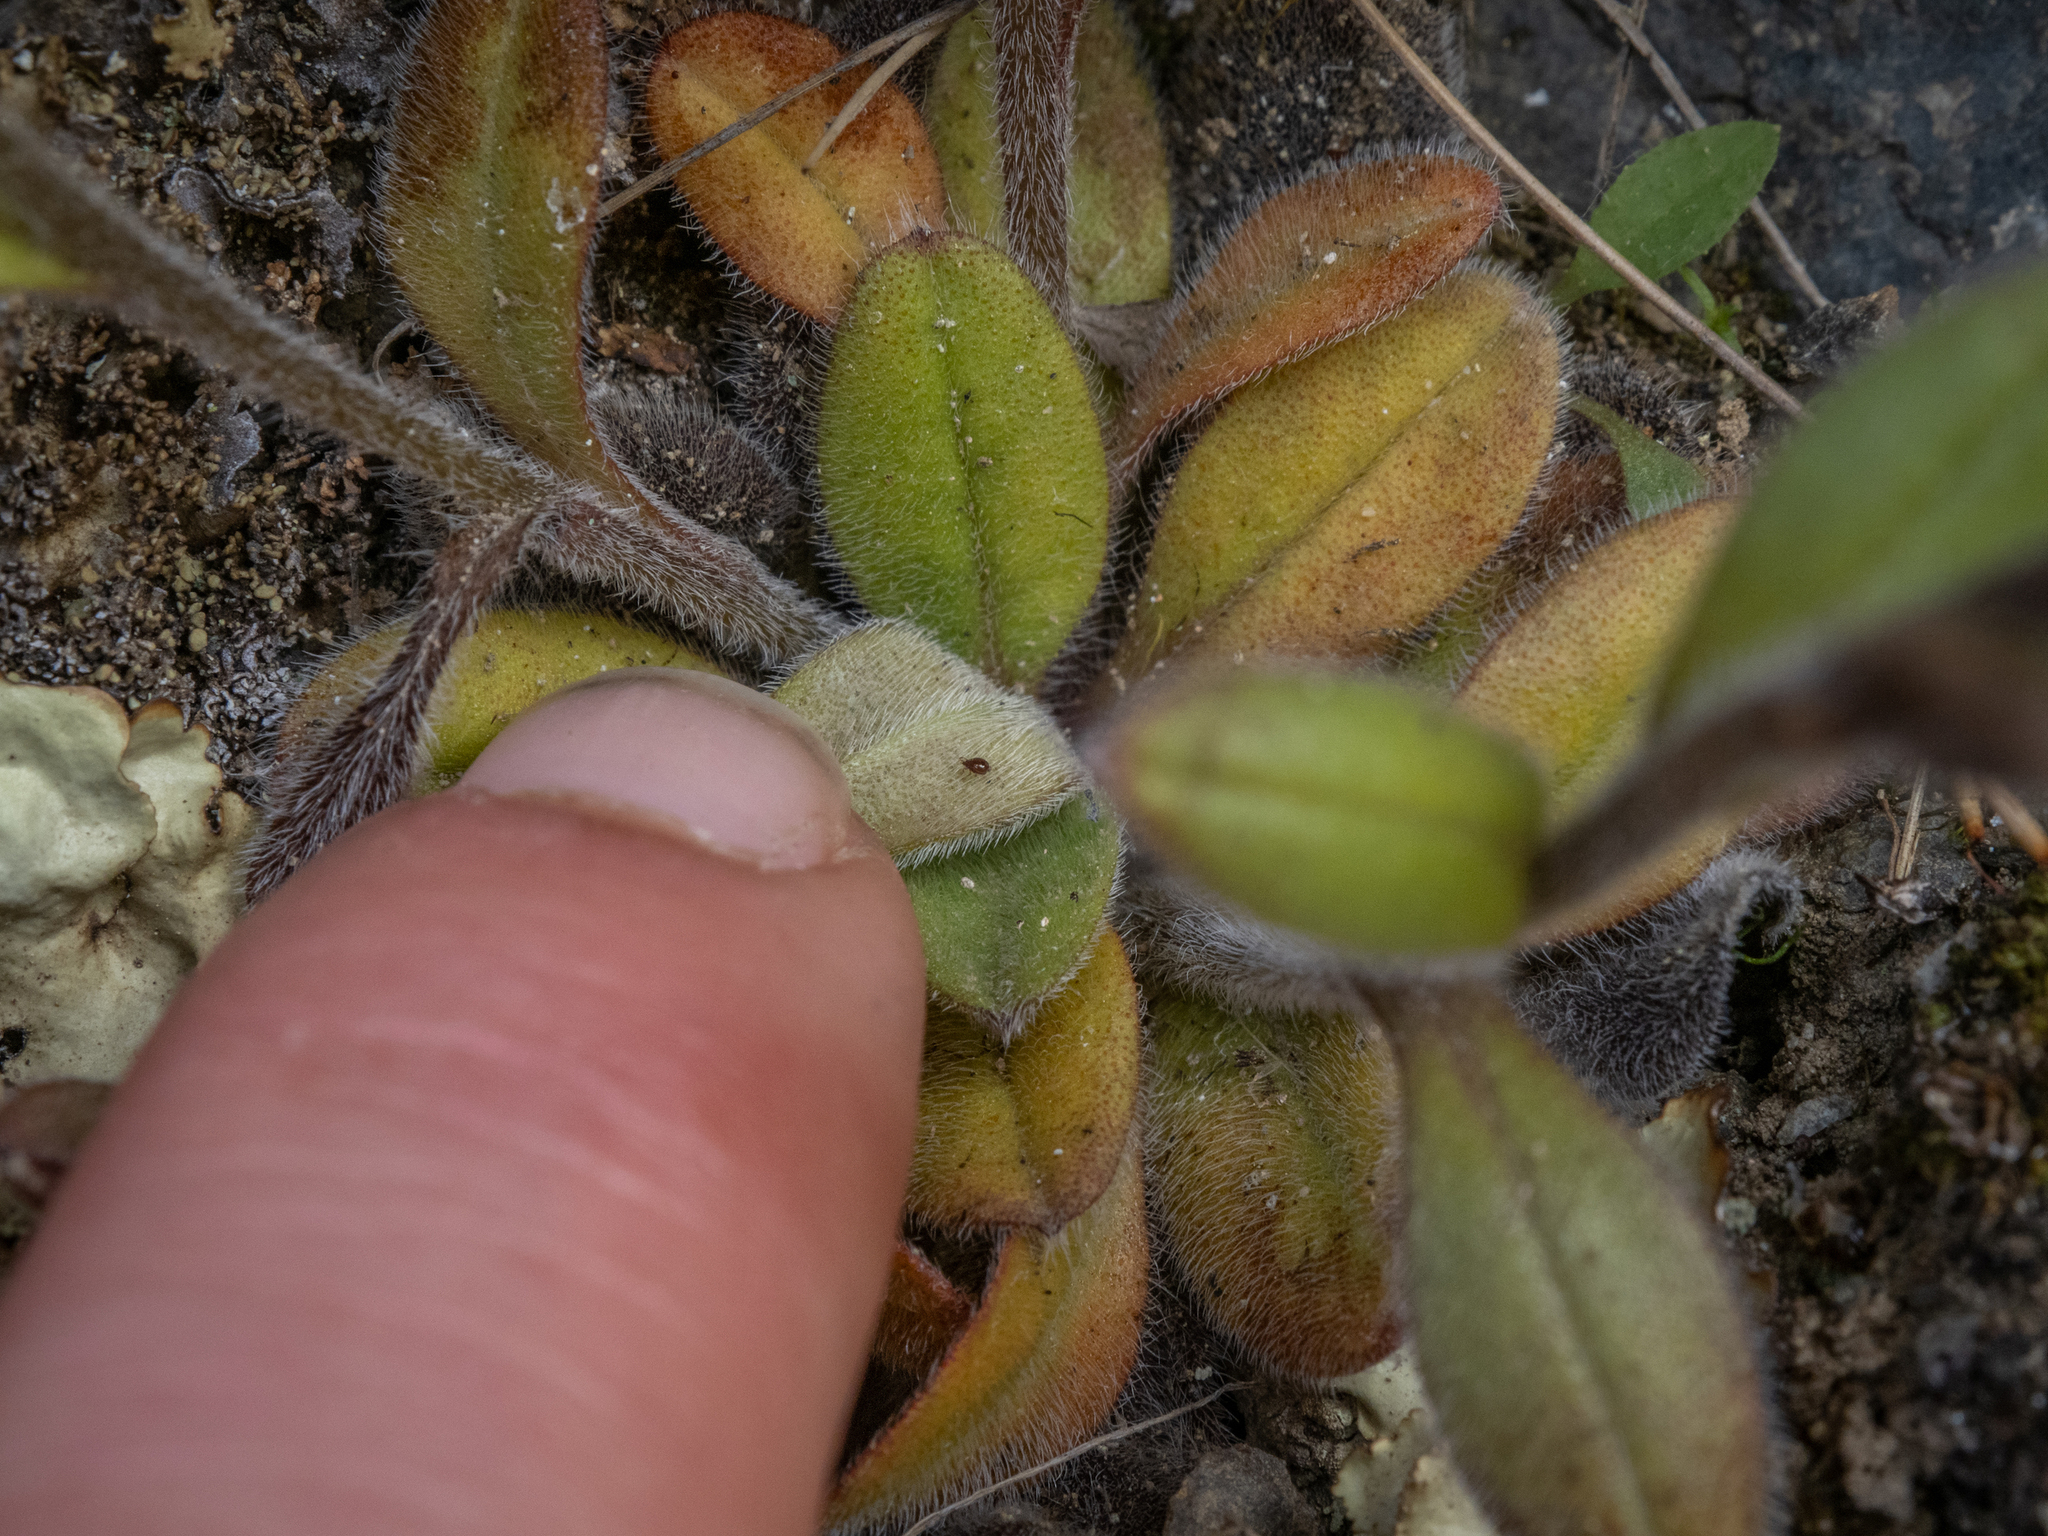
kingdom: Plantae
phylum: Tracheophyta
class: Magnoliopsida
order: Boraginales
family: Boraginaceae
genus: Myosotis
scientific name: Myosotis australis
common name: Australian forget-me-not
